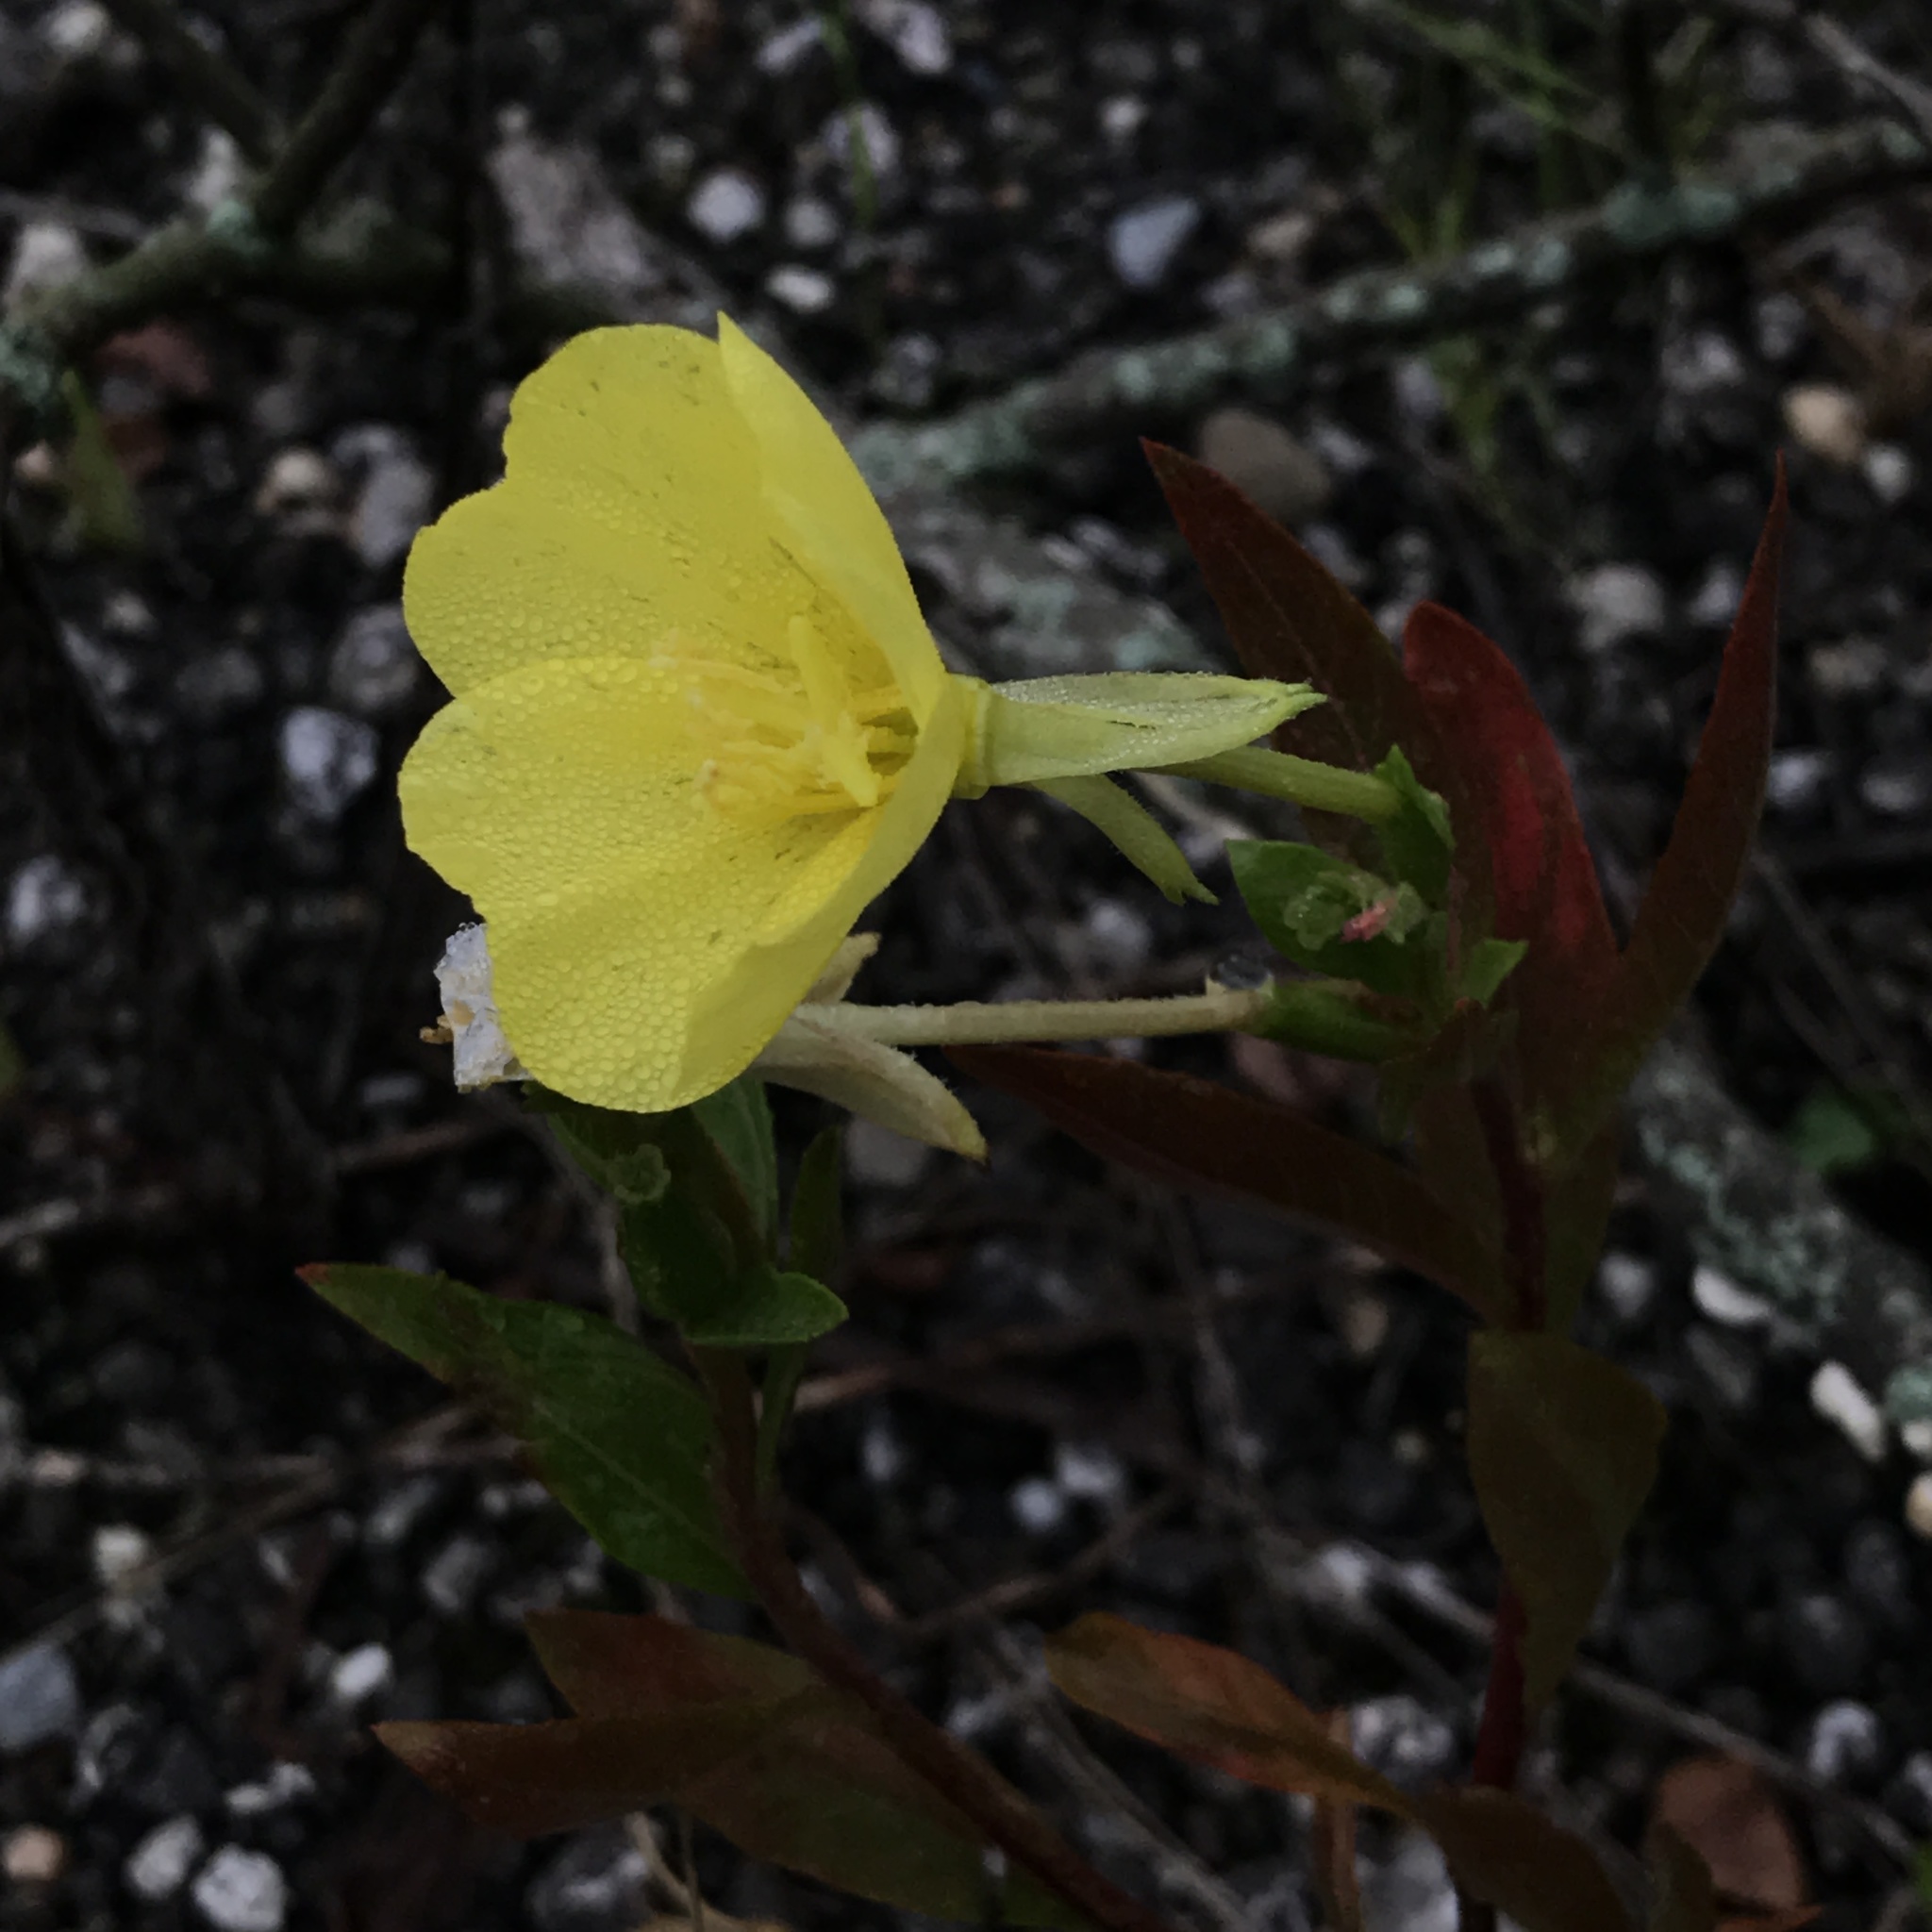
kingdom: Plantae
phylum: Tracheophyta
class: Magnoliopsida
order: Myrtales
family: Onagraceae
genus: Oenothera
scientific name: Oenothera biennis
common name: Common evening-primrose
